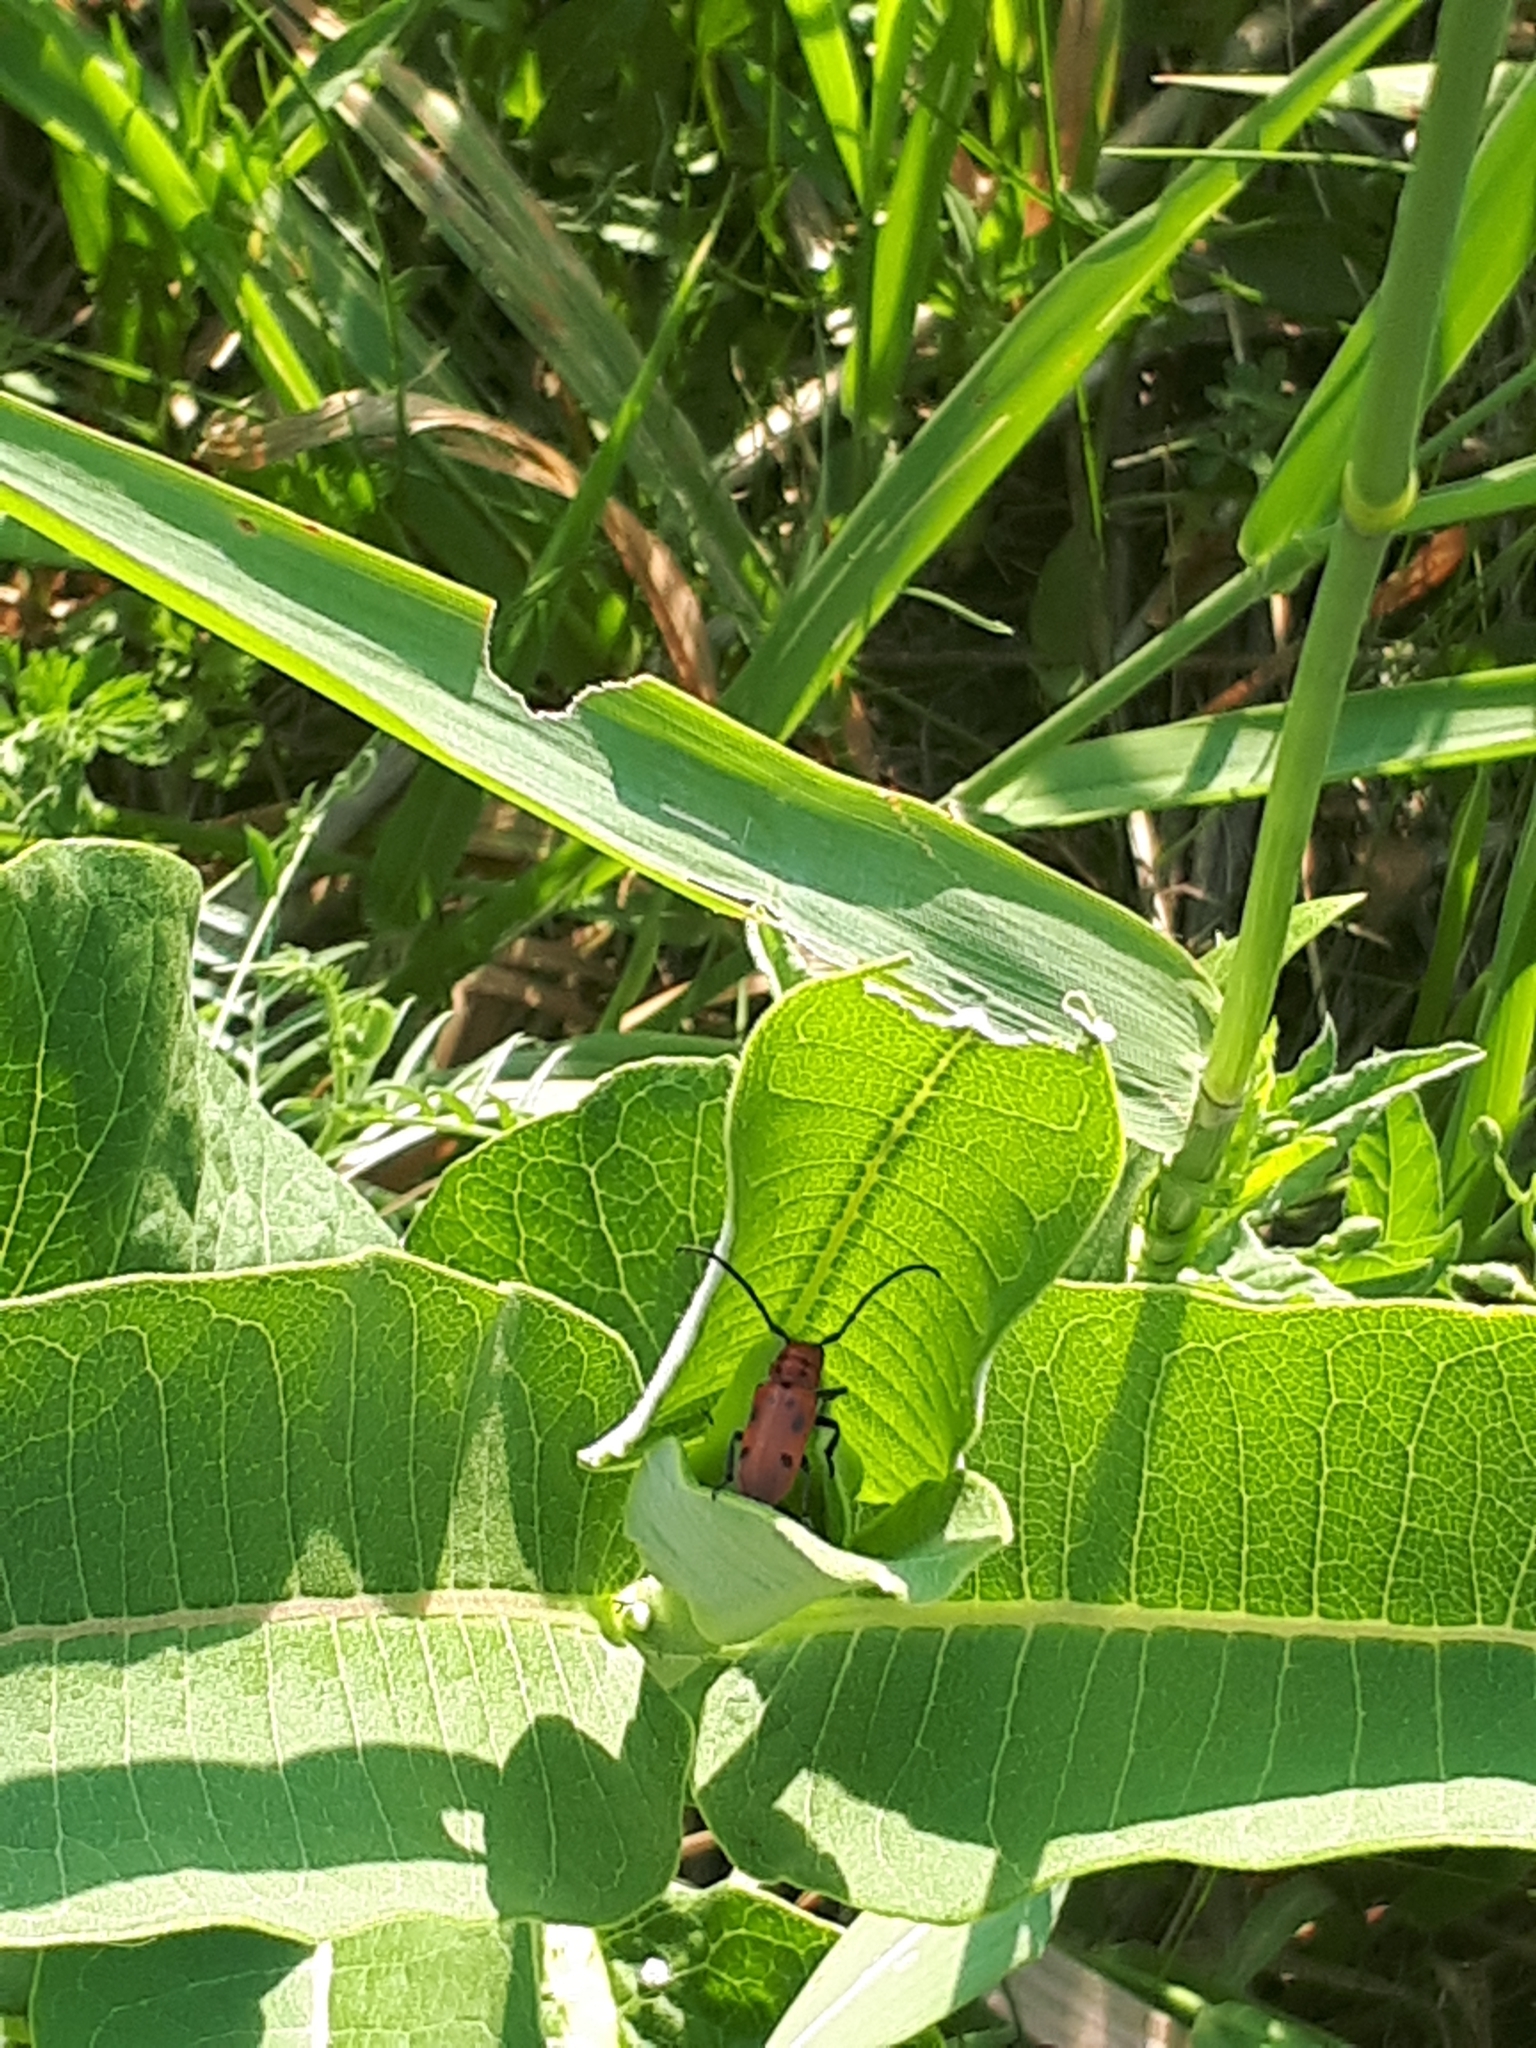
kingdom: Animalia
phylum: Arthropoda
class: Insecta
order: Coleoptera
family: Cerambycidae
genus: Tetraopes
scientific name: Tetraopes tetrophthalmus
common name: Red milkweed beetle
